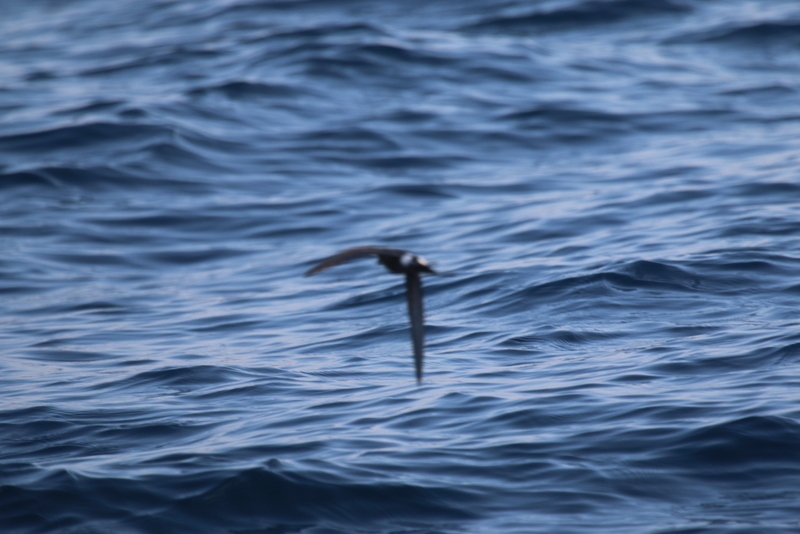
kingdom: Animalia
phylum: Chordata
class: Aves
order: Procellariiformes
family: Hydrobatidae
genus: Oceanites
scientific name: Oceanites oceanicus
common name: Wilson's storm petrel
